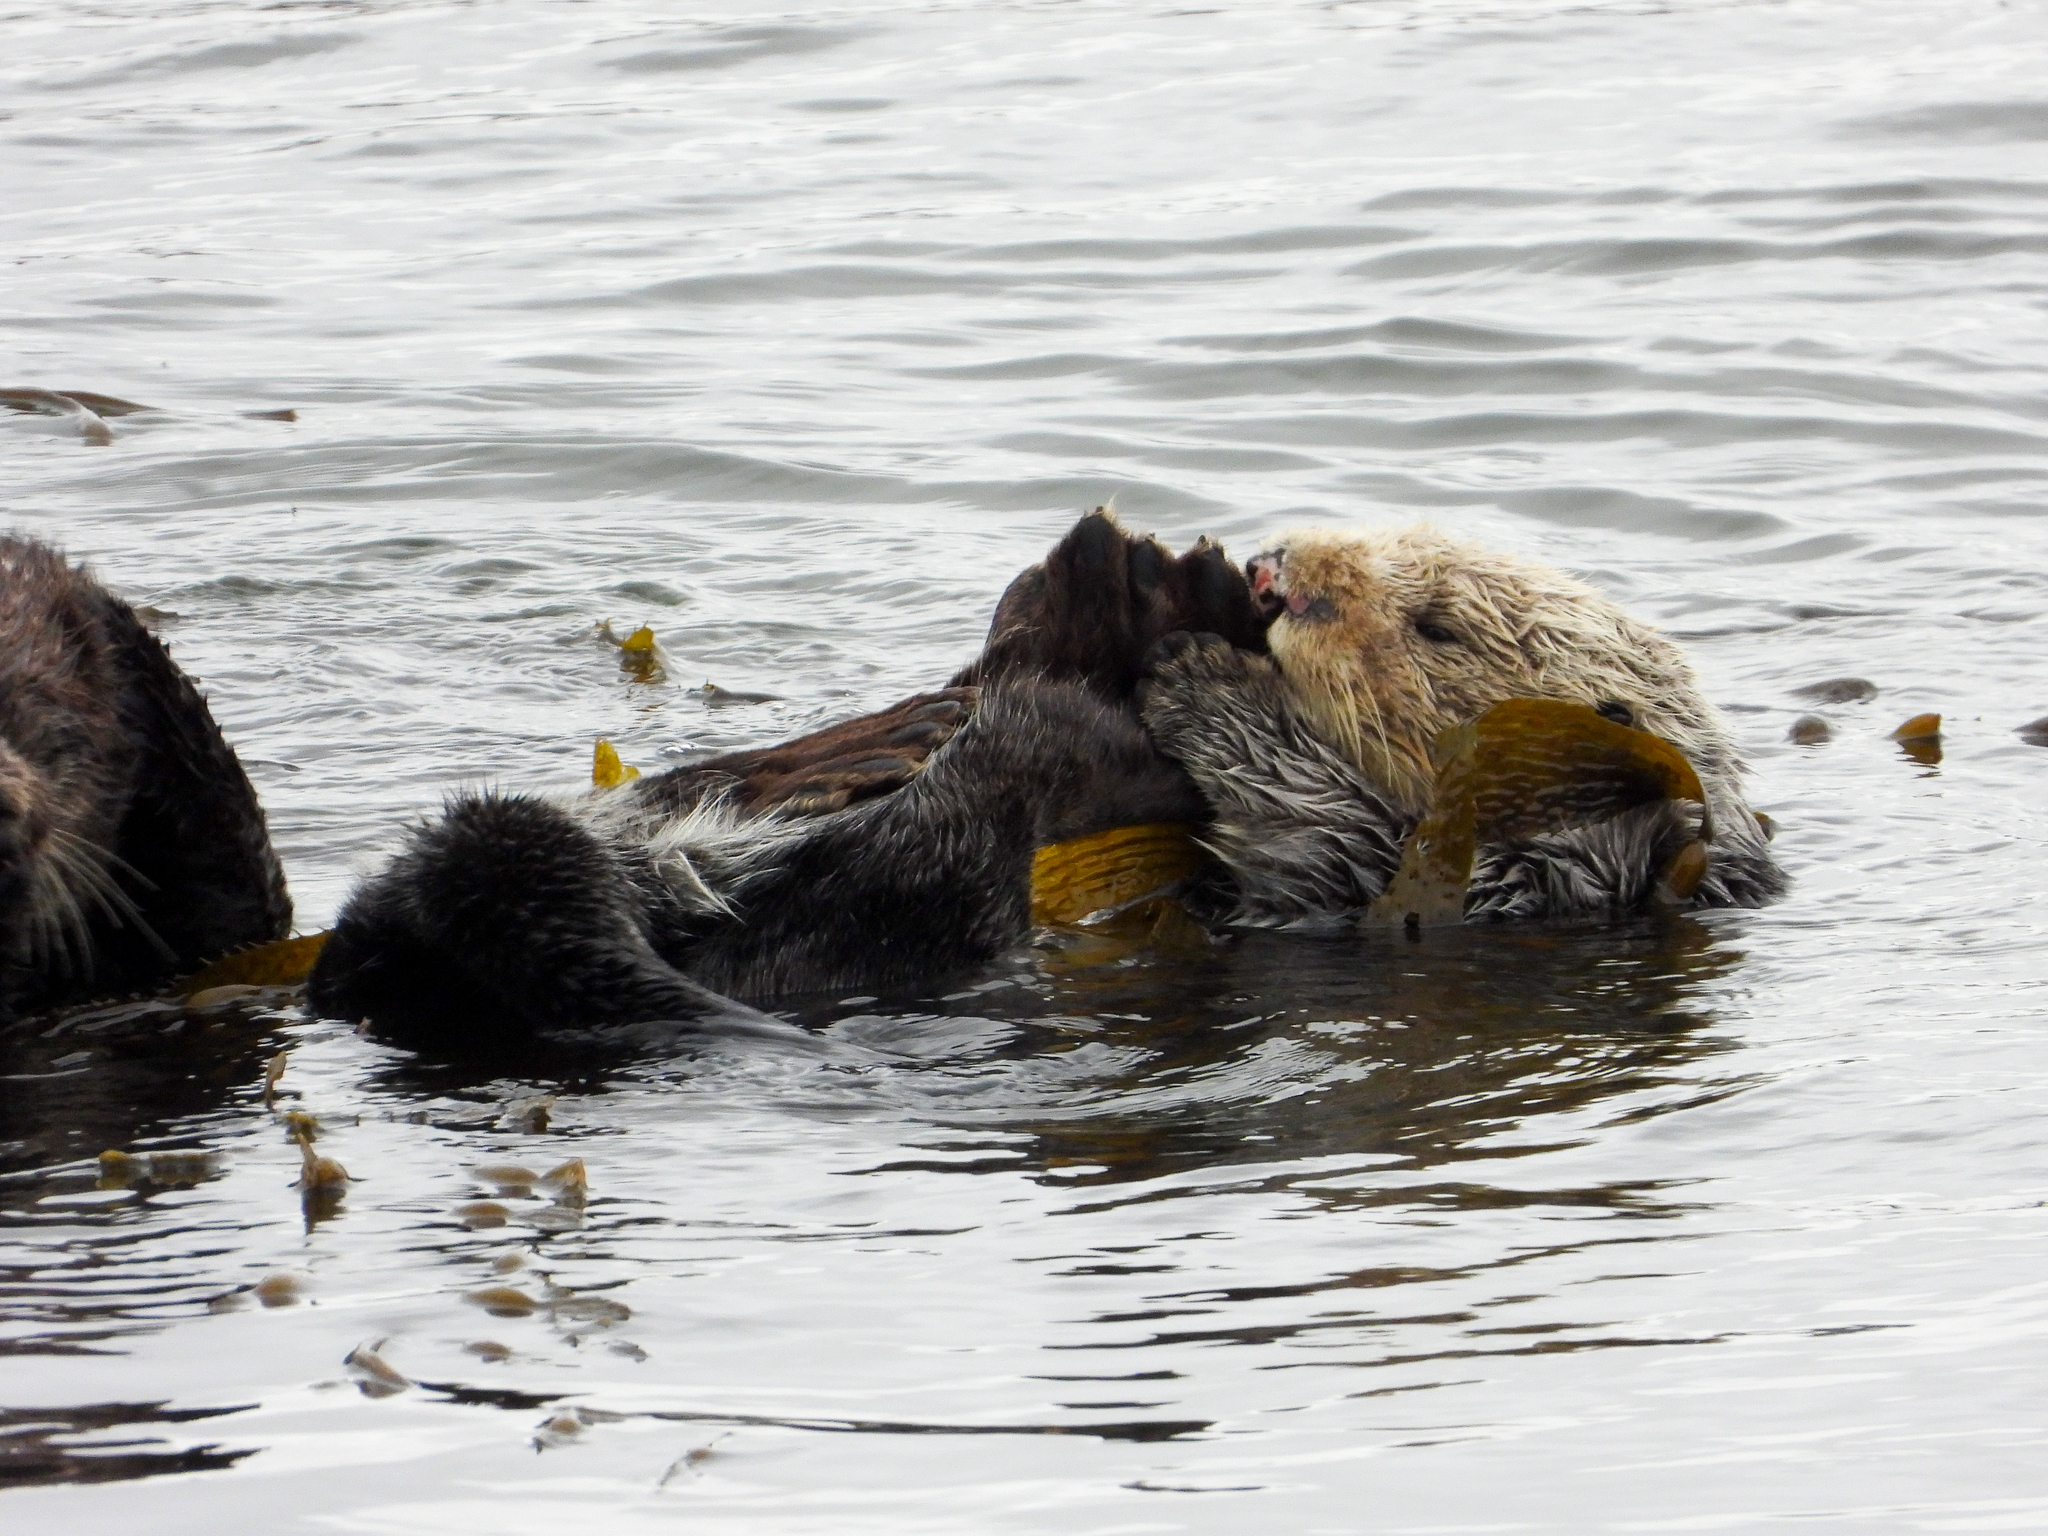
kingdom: Animalia
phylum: Chordata
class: Mammalia
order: Carnivora
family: Mustelidae
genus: Enhydra
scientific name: Enhydra lutris
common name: Sea otter
